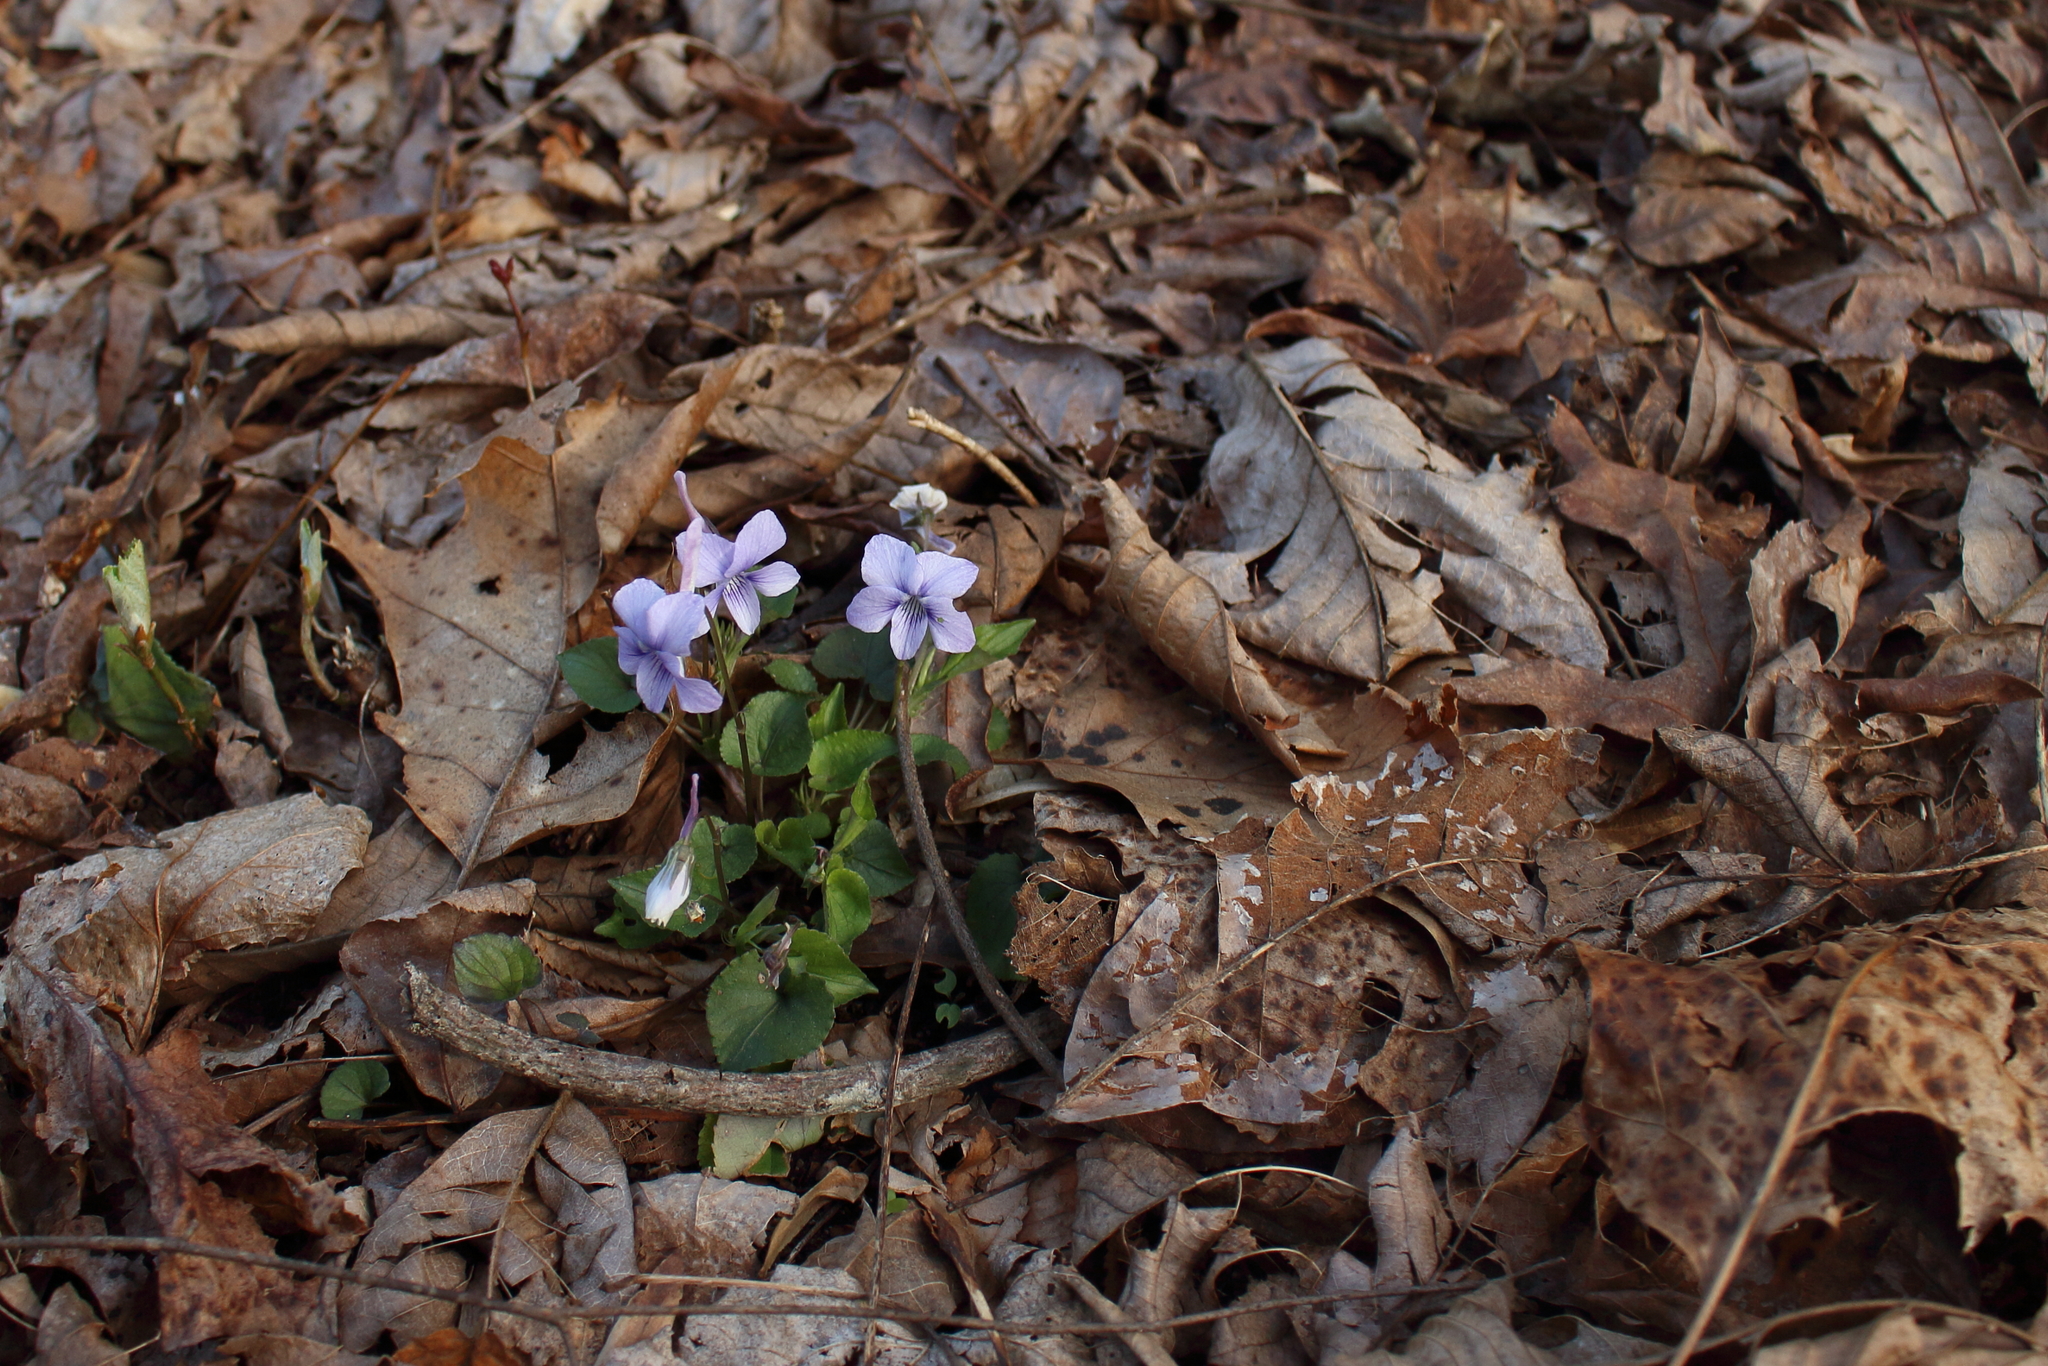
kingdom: Plantae
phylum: Tracheophyta
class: Magnoliopsida
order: Malpighiales
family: Violaceae
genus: Viola
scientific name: Viola rostrata
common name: Long-spur violet
